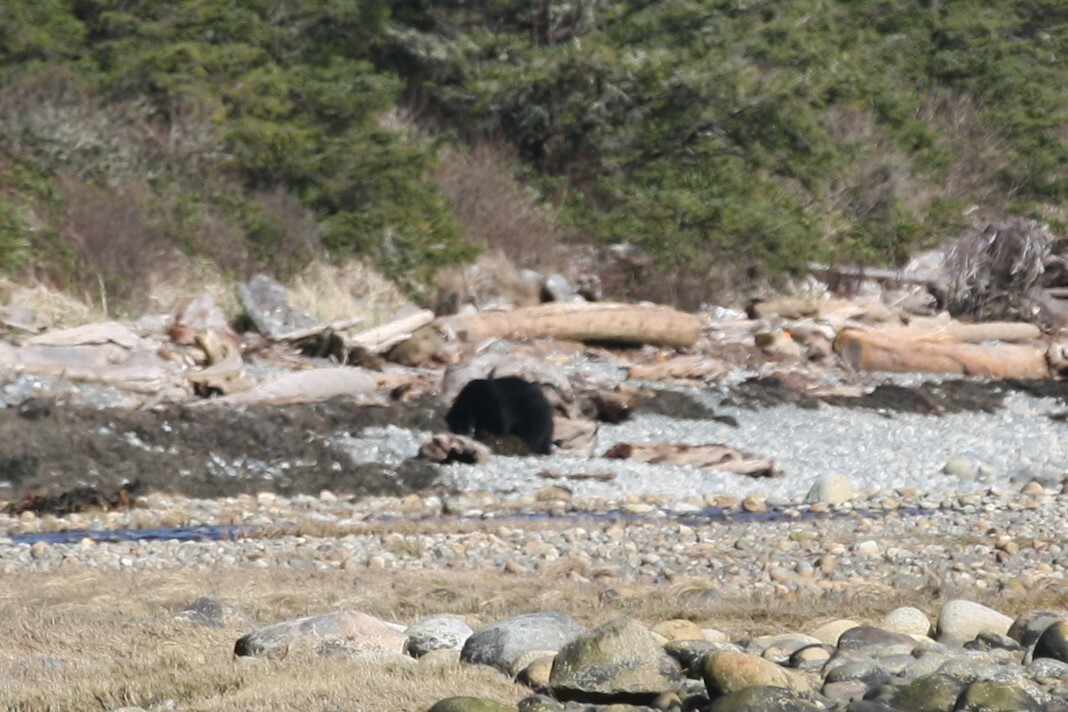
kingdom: Animalia
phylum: Chordata
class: Mammalia
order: Carnivora
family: Ursidae
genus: Ursus
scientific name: Ursus americanus
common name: American black bear
